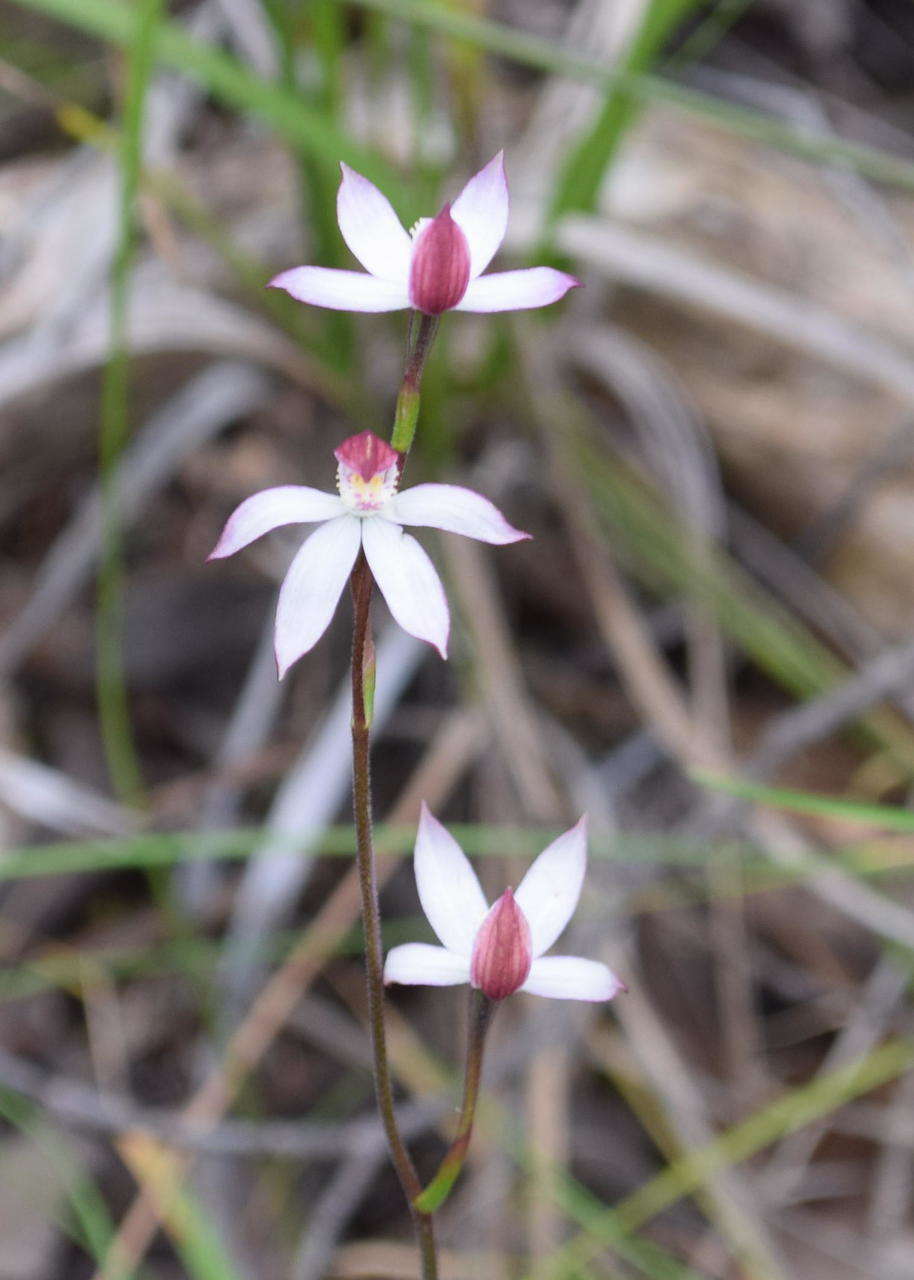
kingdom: Plantae
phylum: Tracheophyta
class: Liliopsida
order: Asparagales
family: Orchidaceae
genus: Caladenia
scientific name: Caladenia moschata
